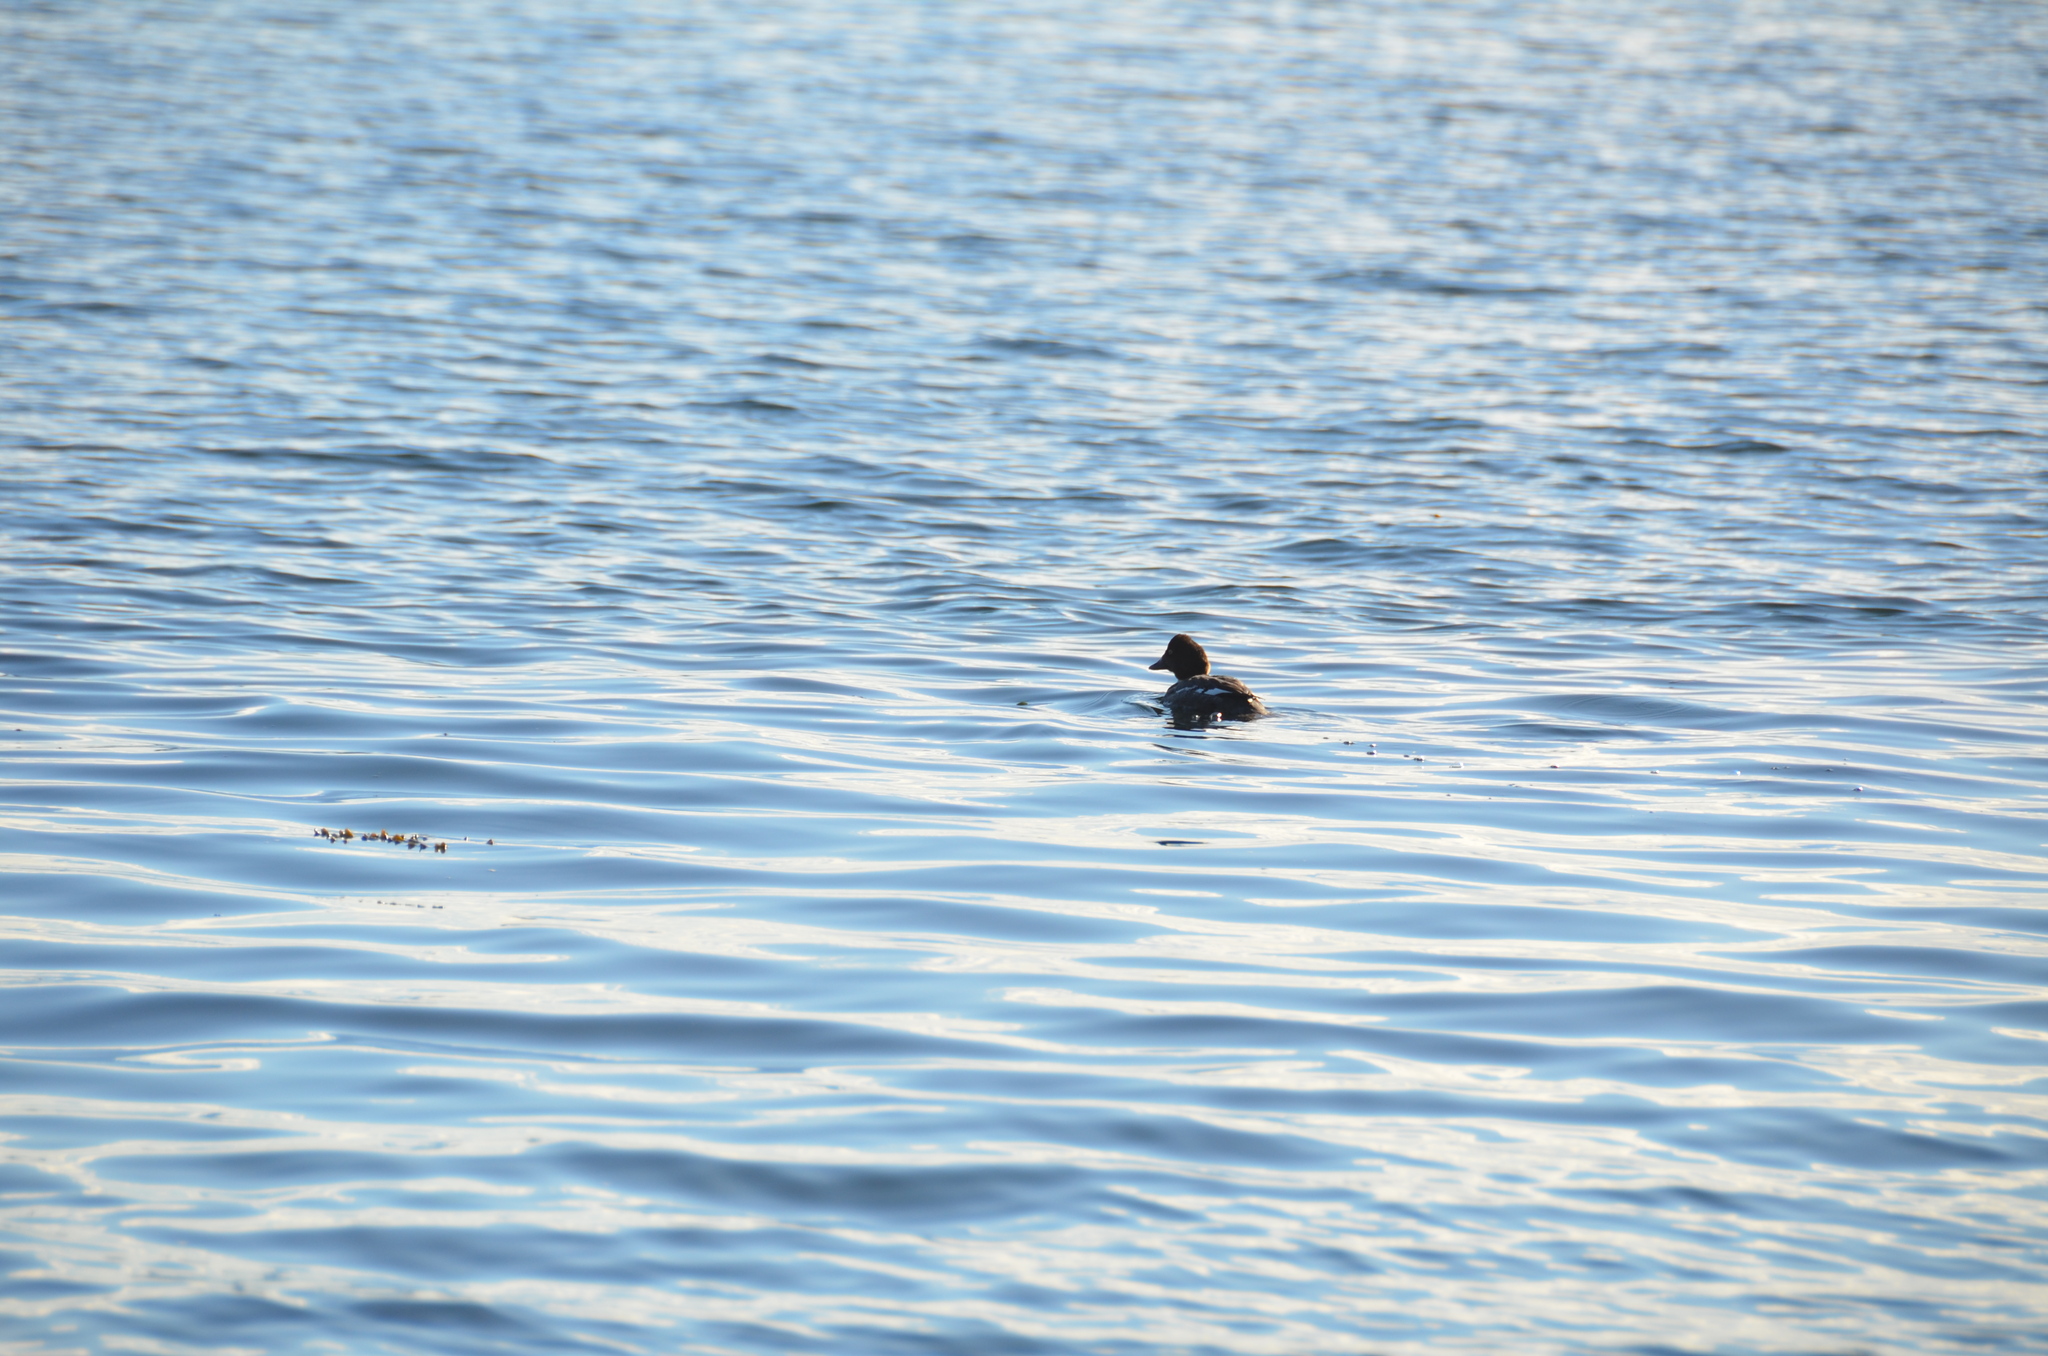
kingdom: Animalia
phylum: Chordata
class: Aves
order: Anseriformes
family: Anatidae
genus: Bucephala
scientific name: Bucephala clangula
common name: Common goldeneye
